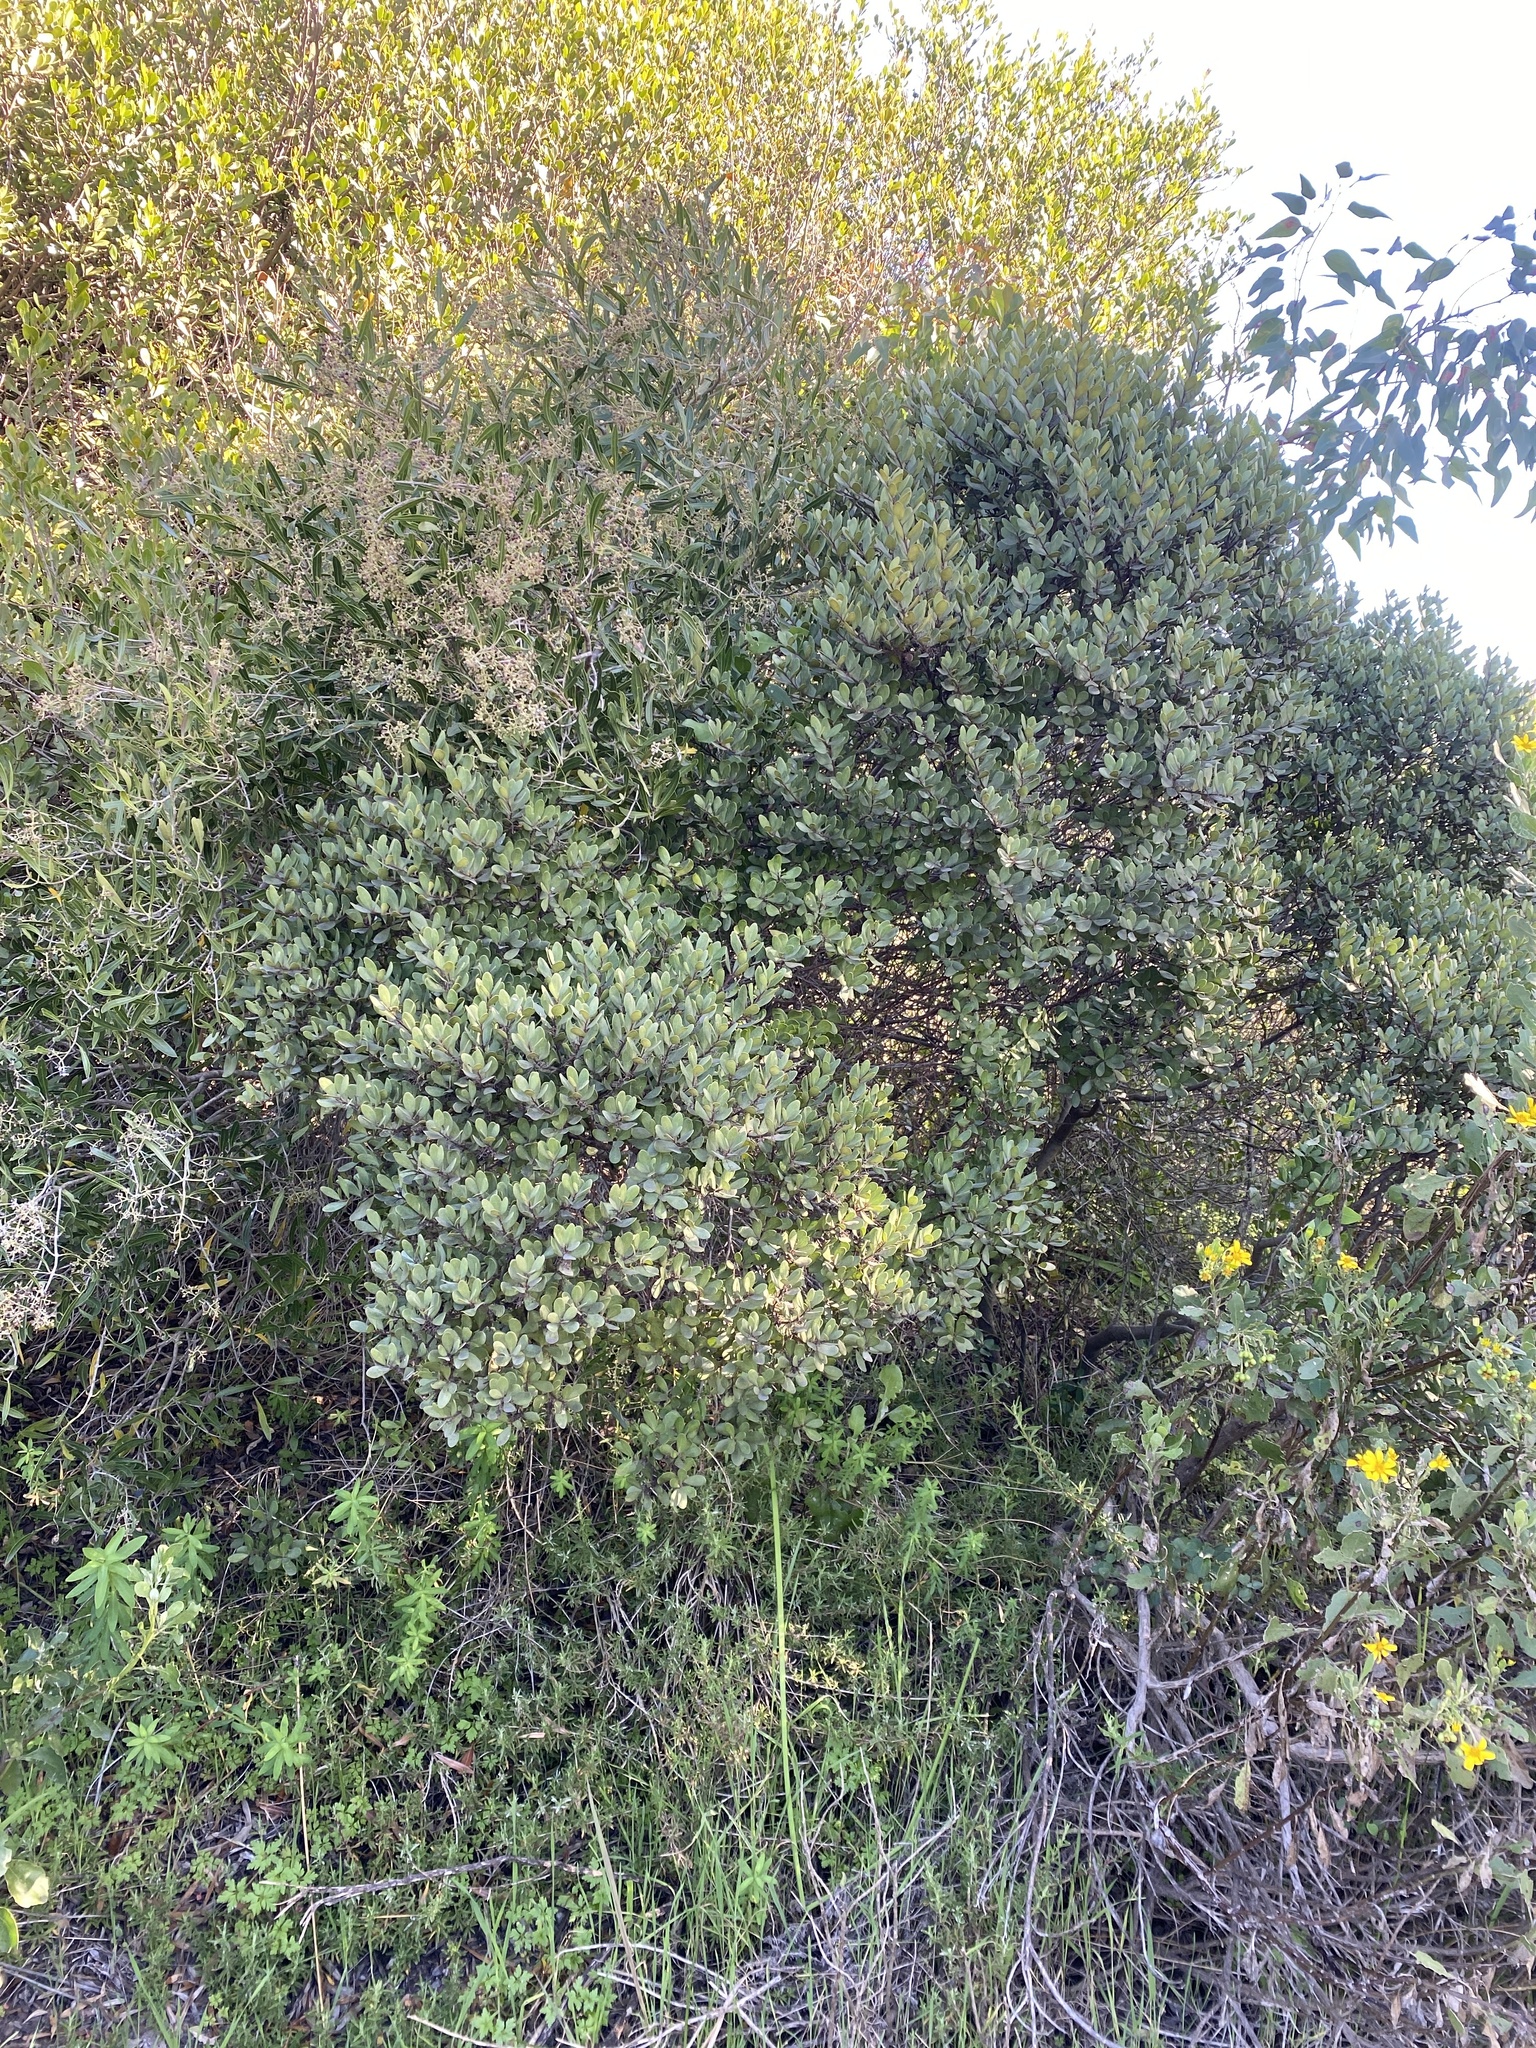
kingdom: Plantae
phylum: Tracheophyta
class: Magnoliopsida
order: Ericales
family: Ebenaceae
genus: Euclea
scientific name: Euclea racemosa
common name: Dune guarri
